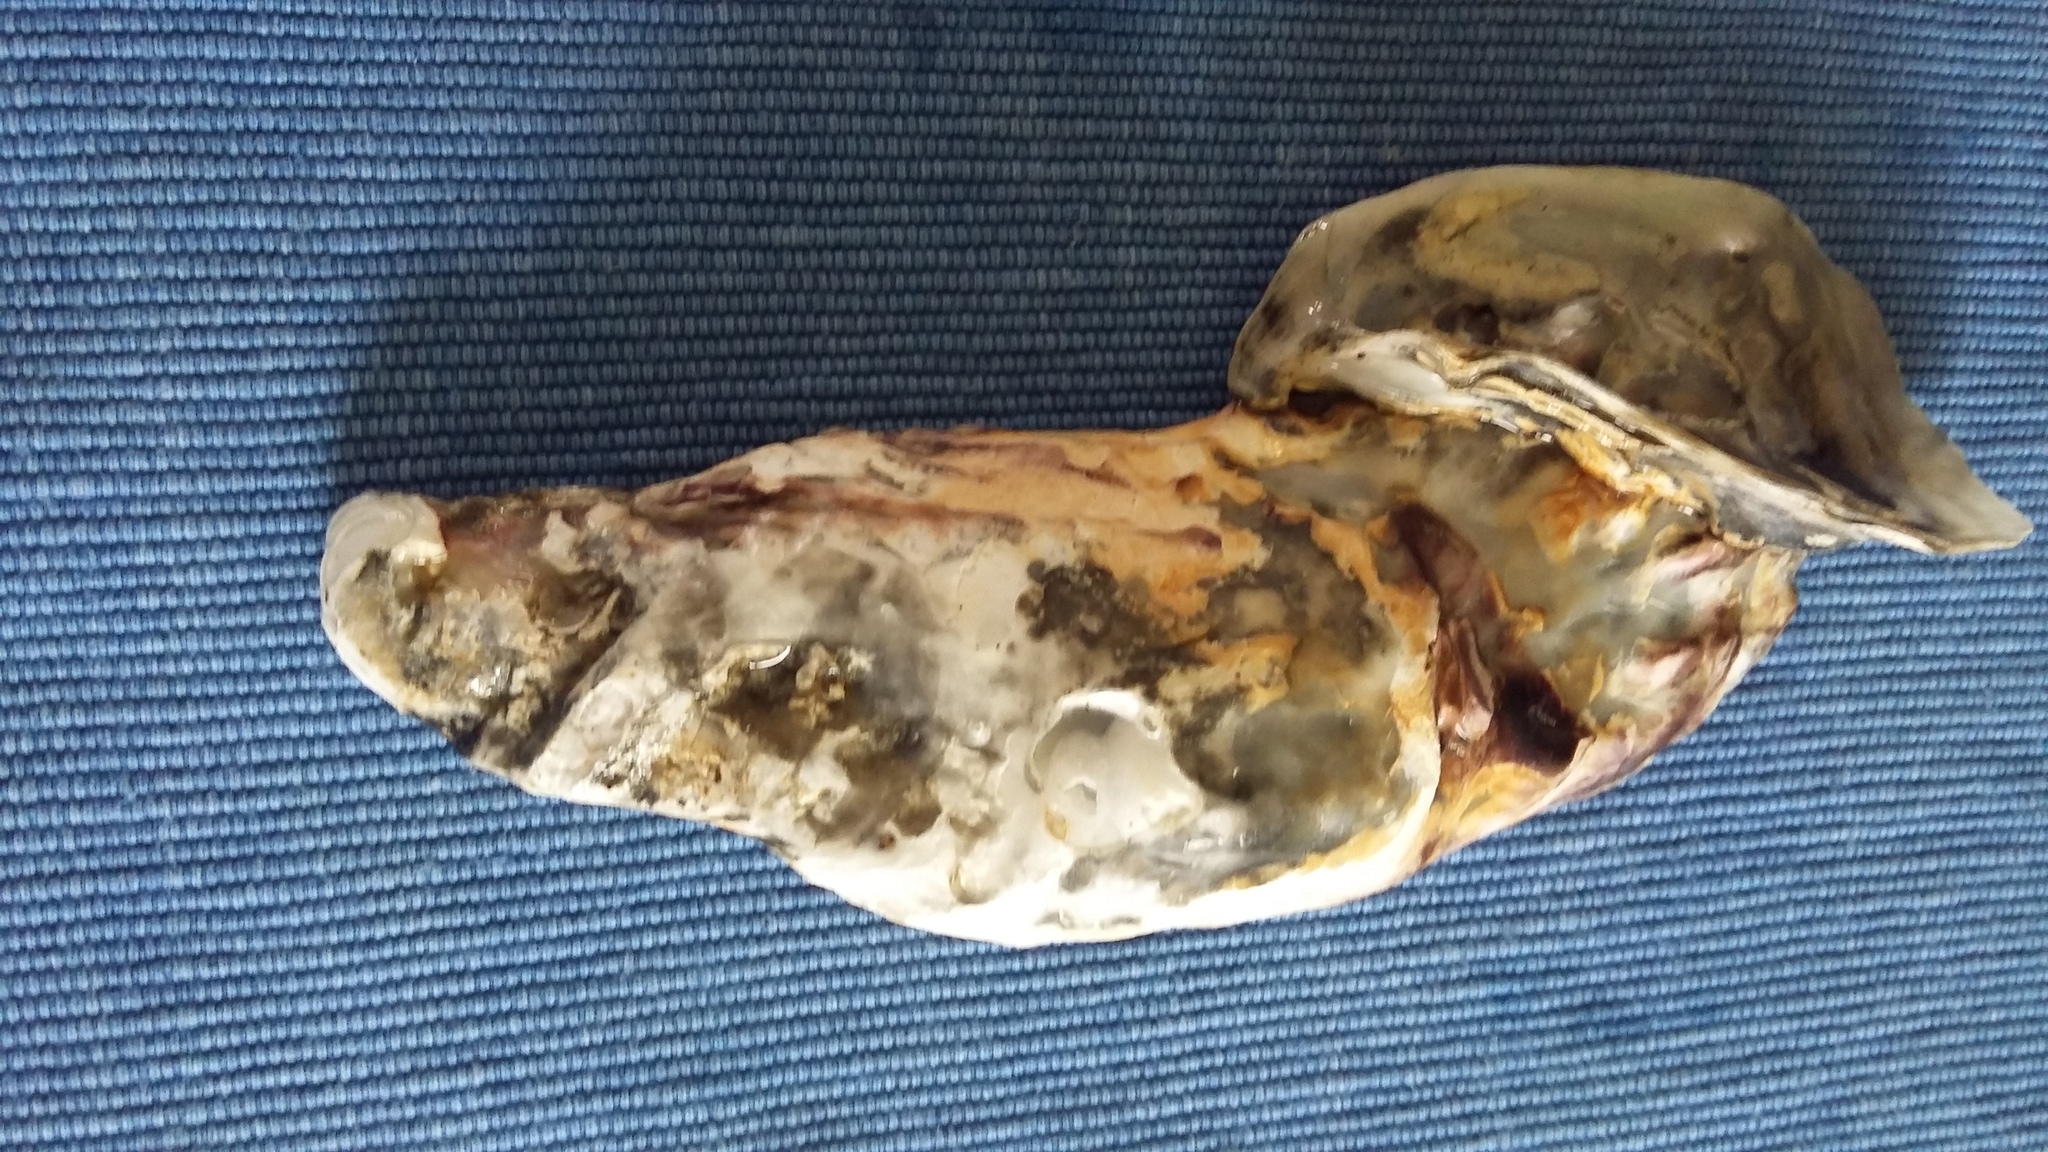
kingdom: Animalia
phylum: Mollusca
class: Bivalvia
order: Ostreida
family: Ostreidae
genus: Magallana
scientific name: Magallana gigas
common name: Pacific oyster
